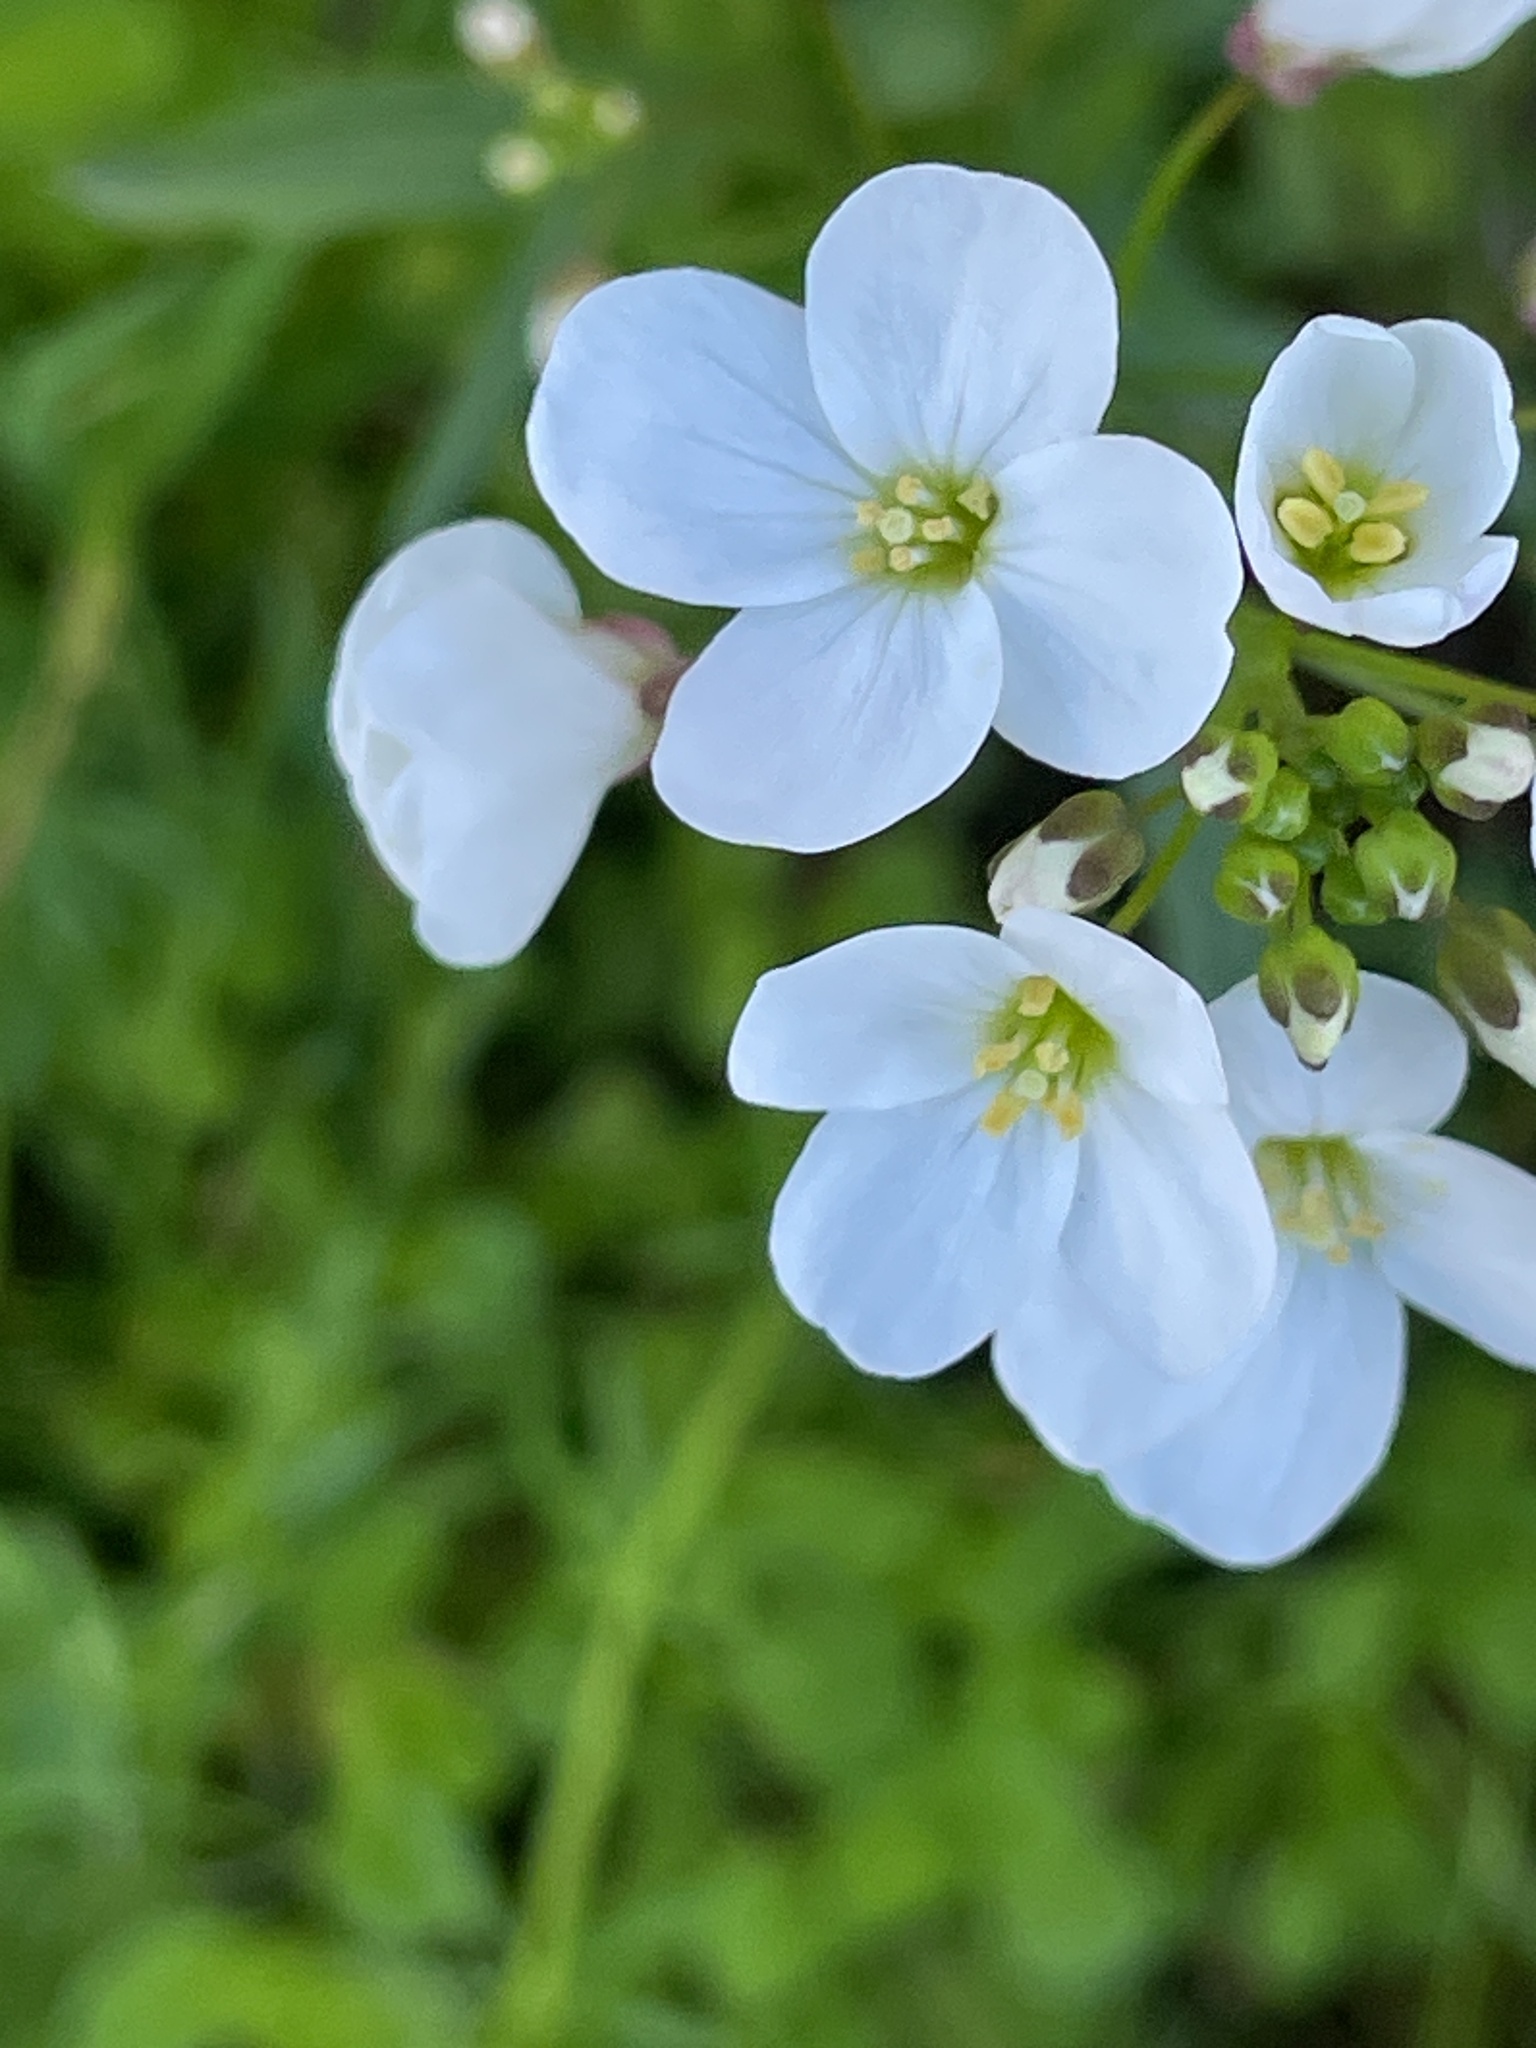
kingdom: Plantae
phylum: Tracheophyta
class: Magnoliopsida
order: Brassicales
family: Brassicaceae
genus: Cardamine
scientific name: Cardamine californica
